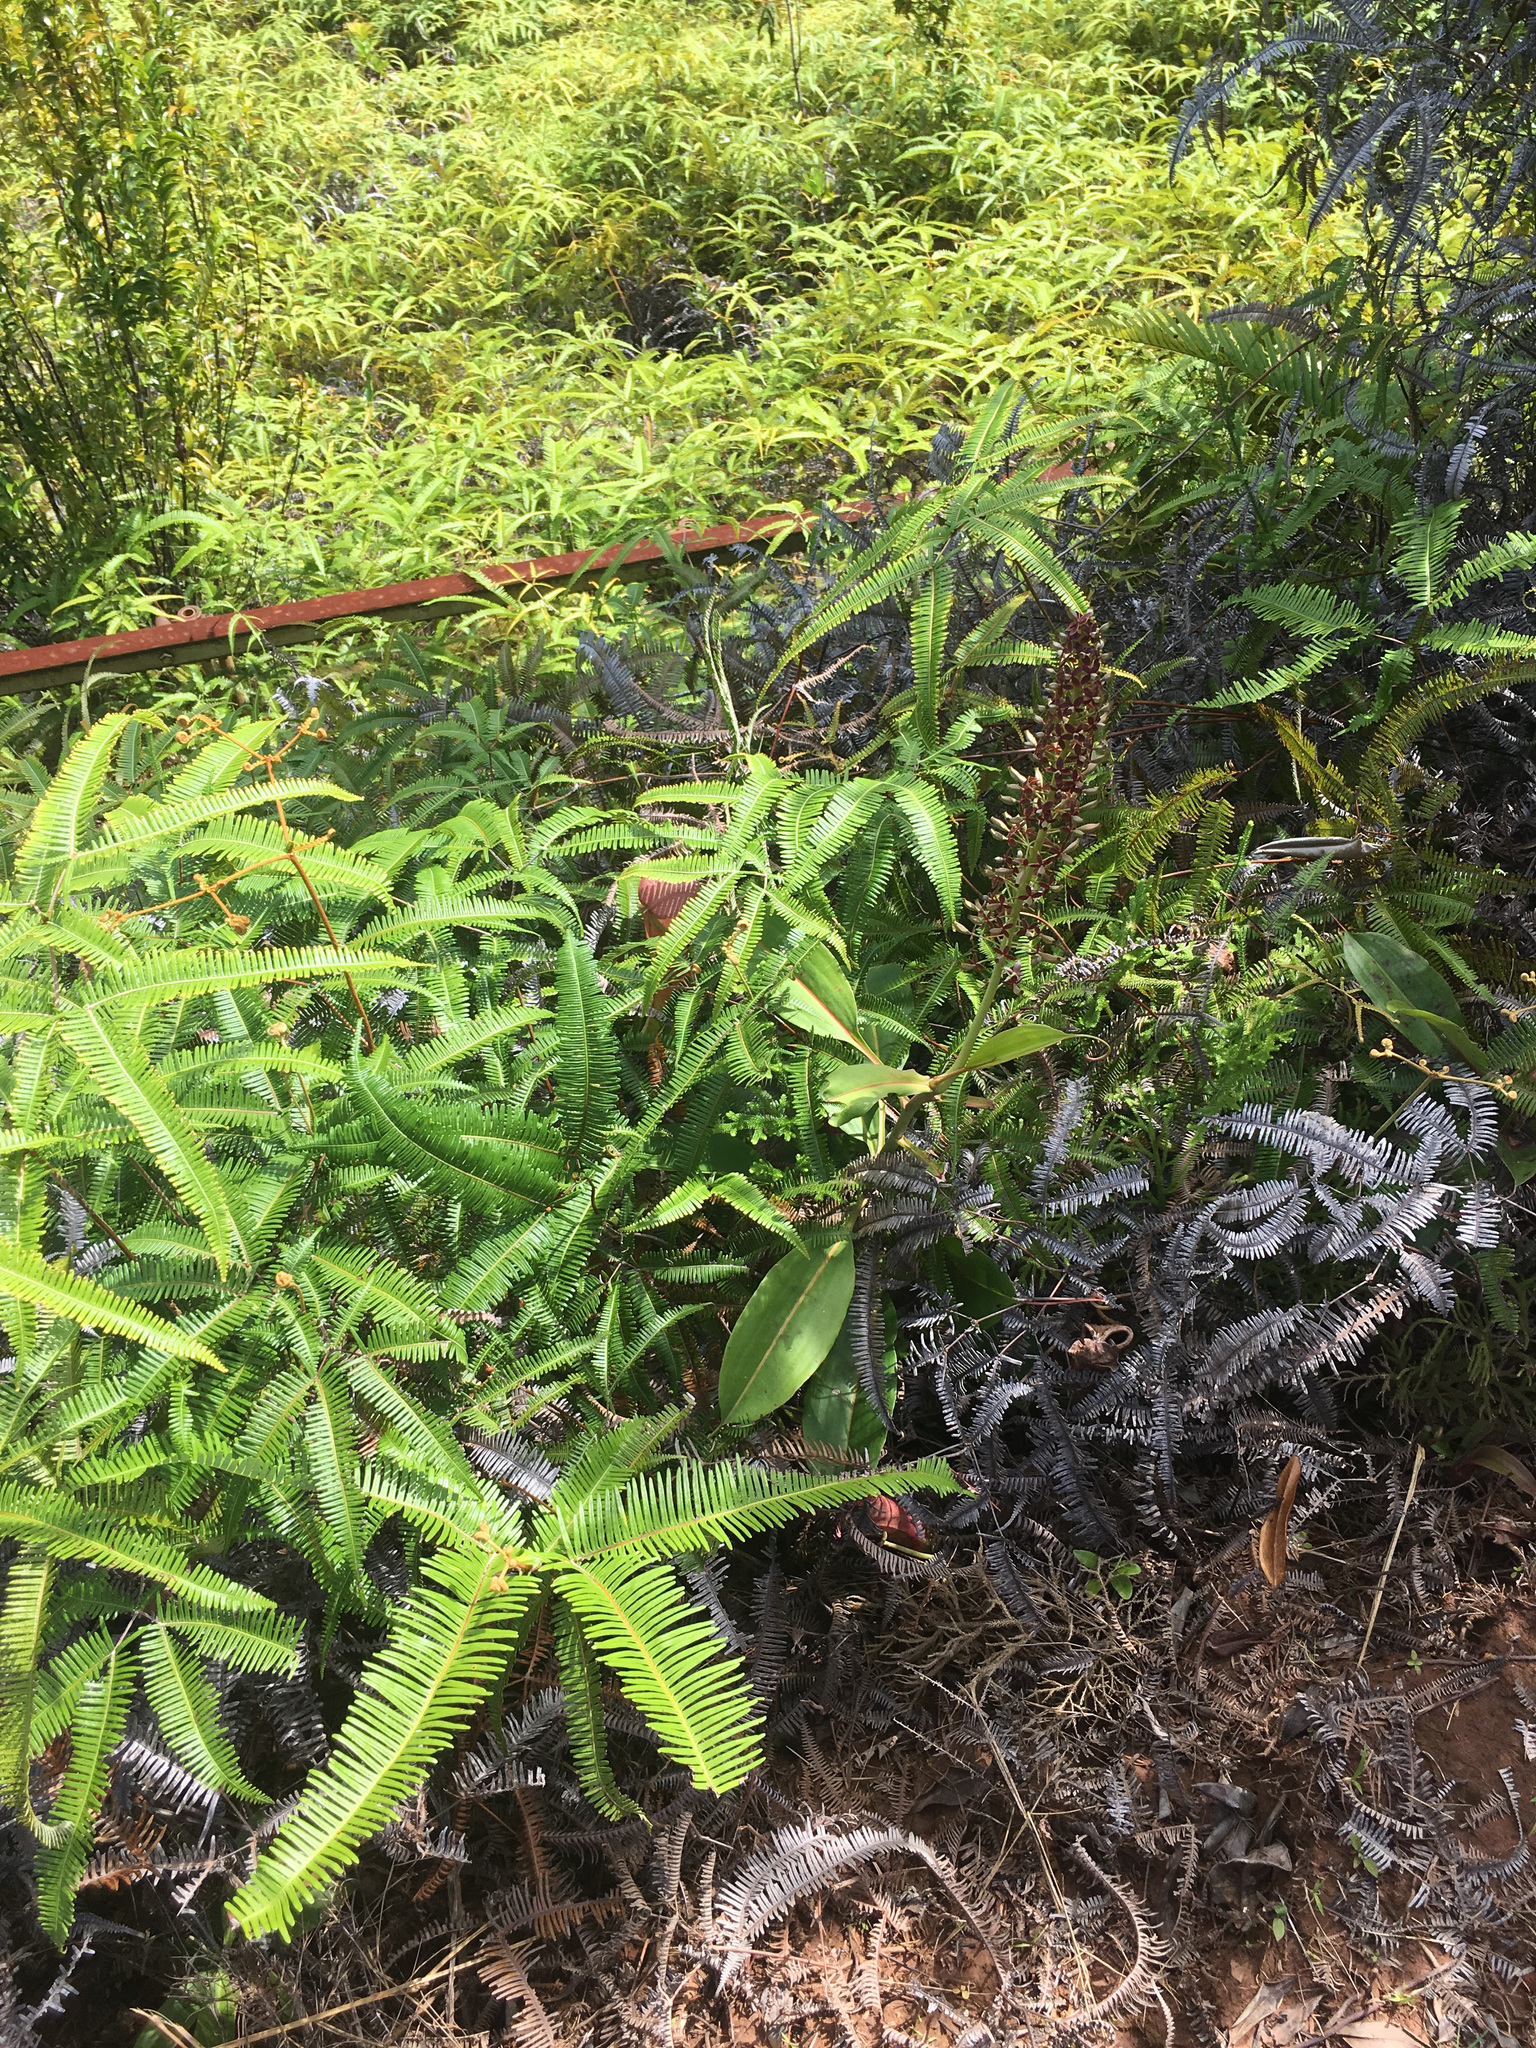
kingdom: Plantae
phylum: Tracheophyta
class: Magnoliopsida
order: Caryophyllales
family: Nepenthaceae
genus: Nepenthes
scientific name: Nepenthes mirabilis
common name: Tropical pitcherplant
